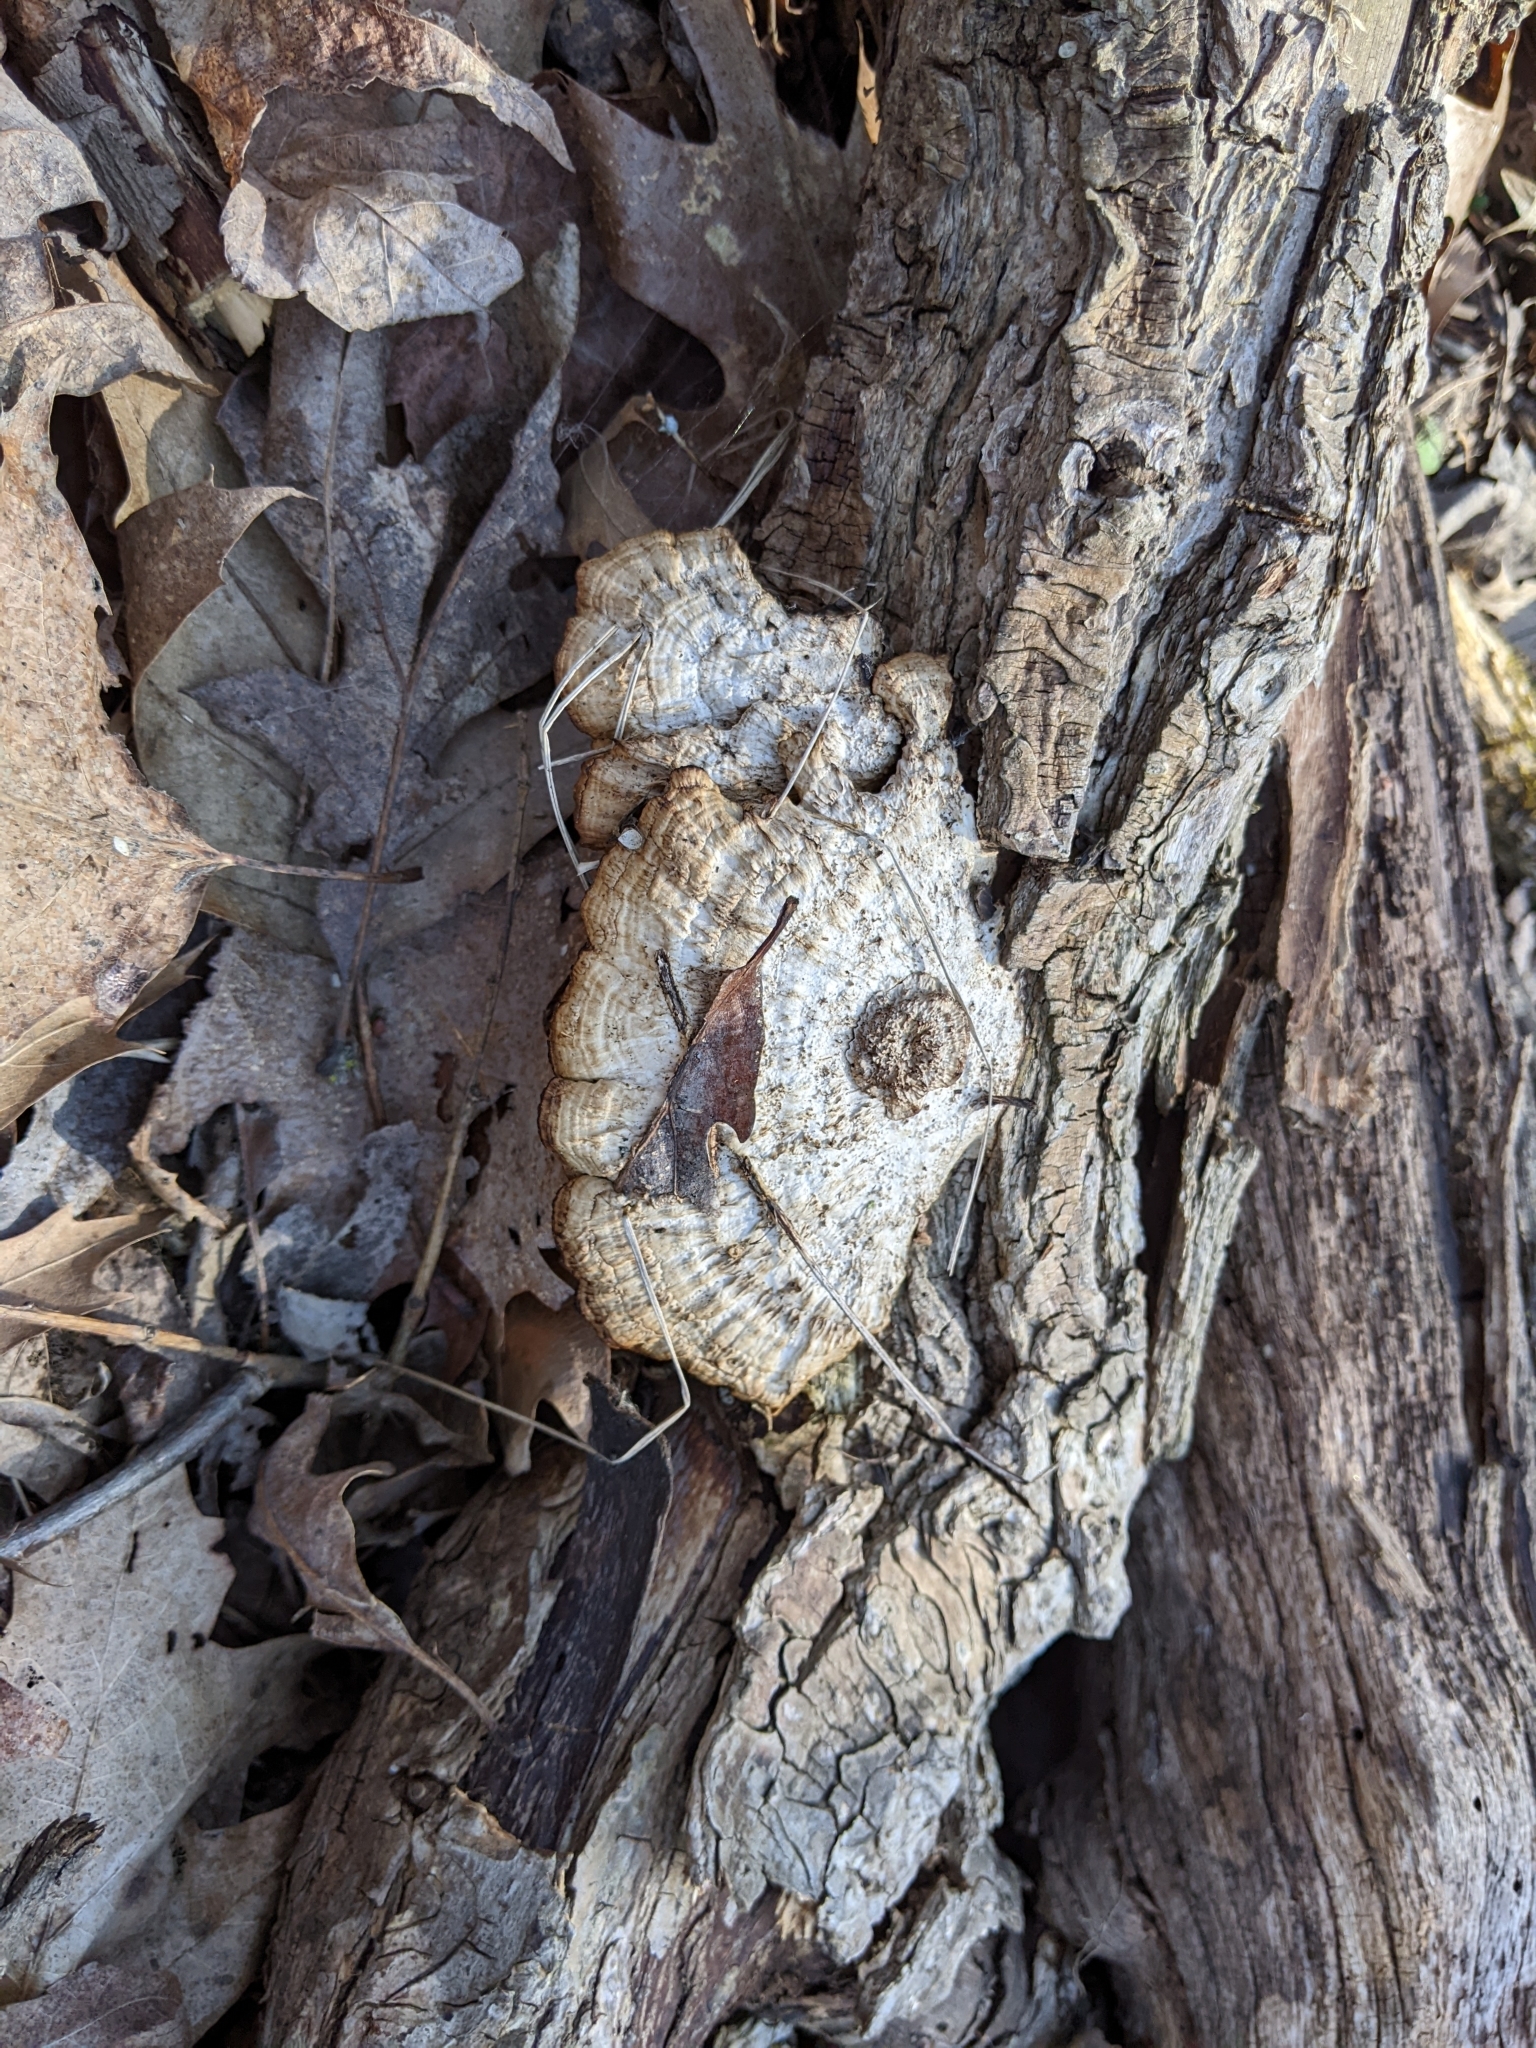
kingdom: Fungi
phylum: Basidiomycota
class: Agaricomycetes
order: Polyporales
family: Polyporaceae
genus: Daedaleopsis
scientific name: Daedaleopsis confragosa
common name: Blushing bracket
